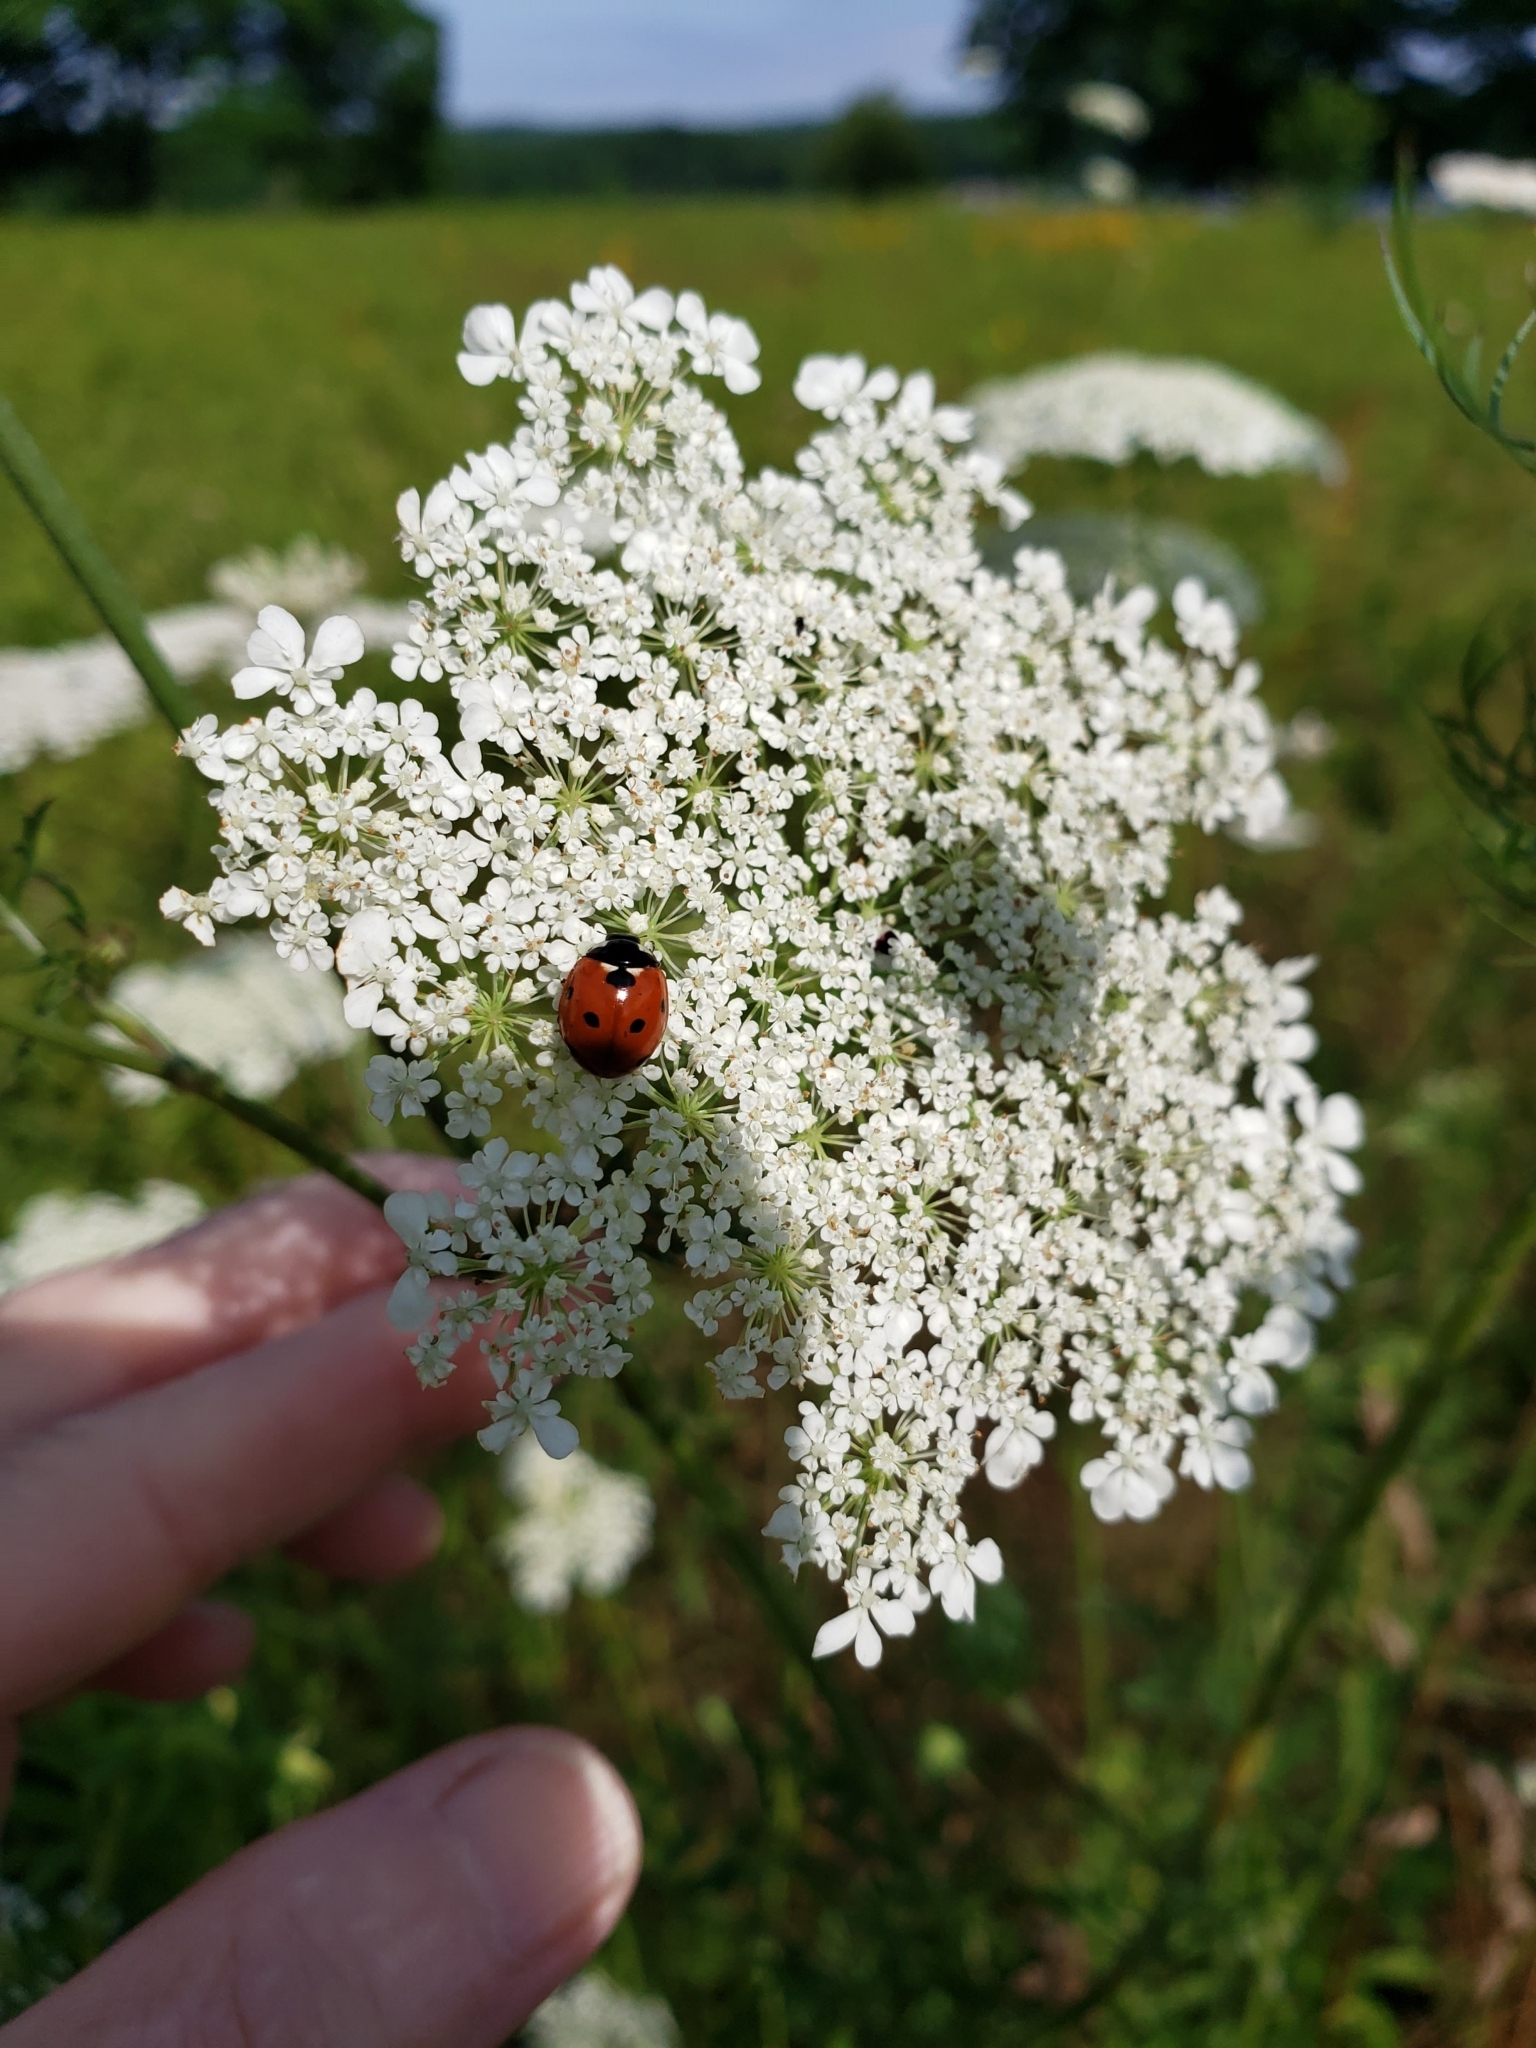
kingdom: Animalia
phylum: Arthropoda
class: Insecta
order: Coleoptera
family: Coccinellidae
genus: Coccinella
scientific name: Coccinella septempunctata
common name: Sevenspotted lady beetle
